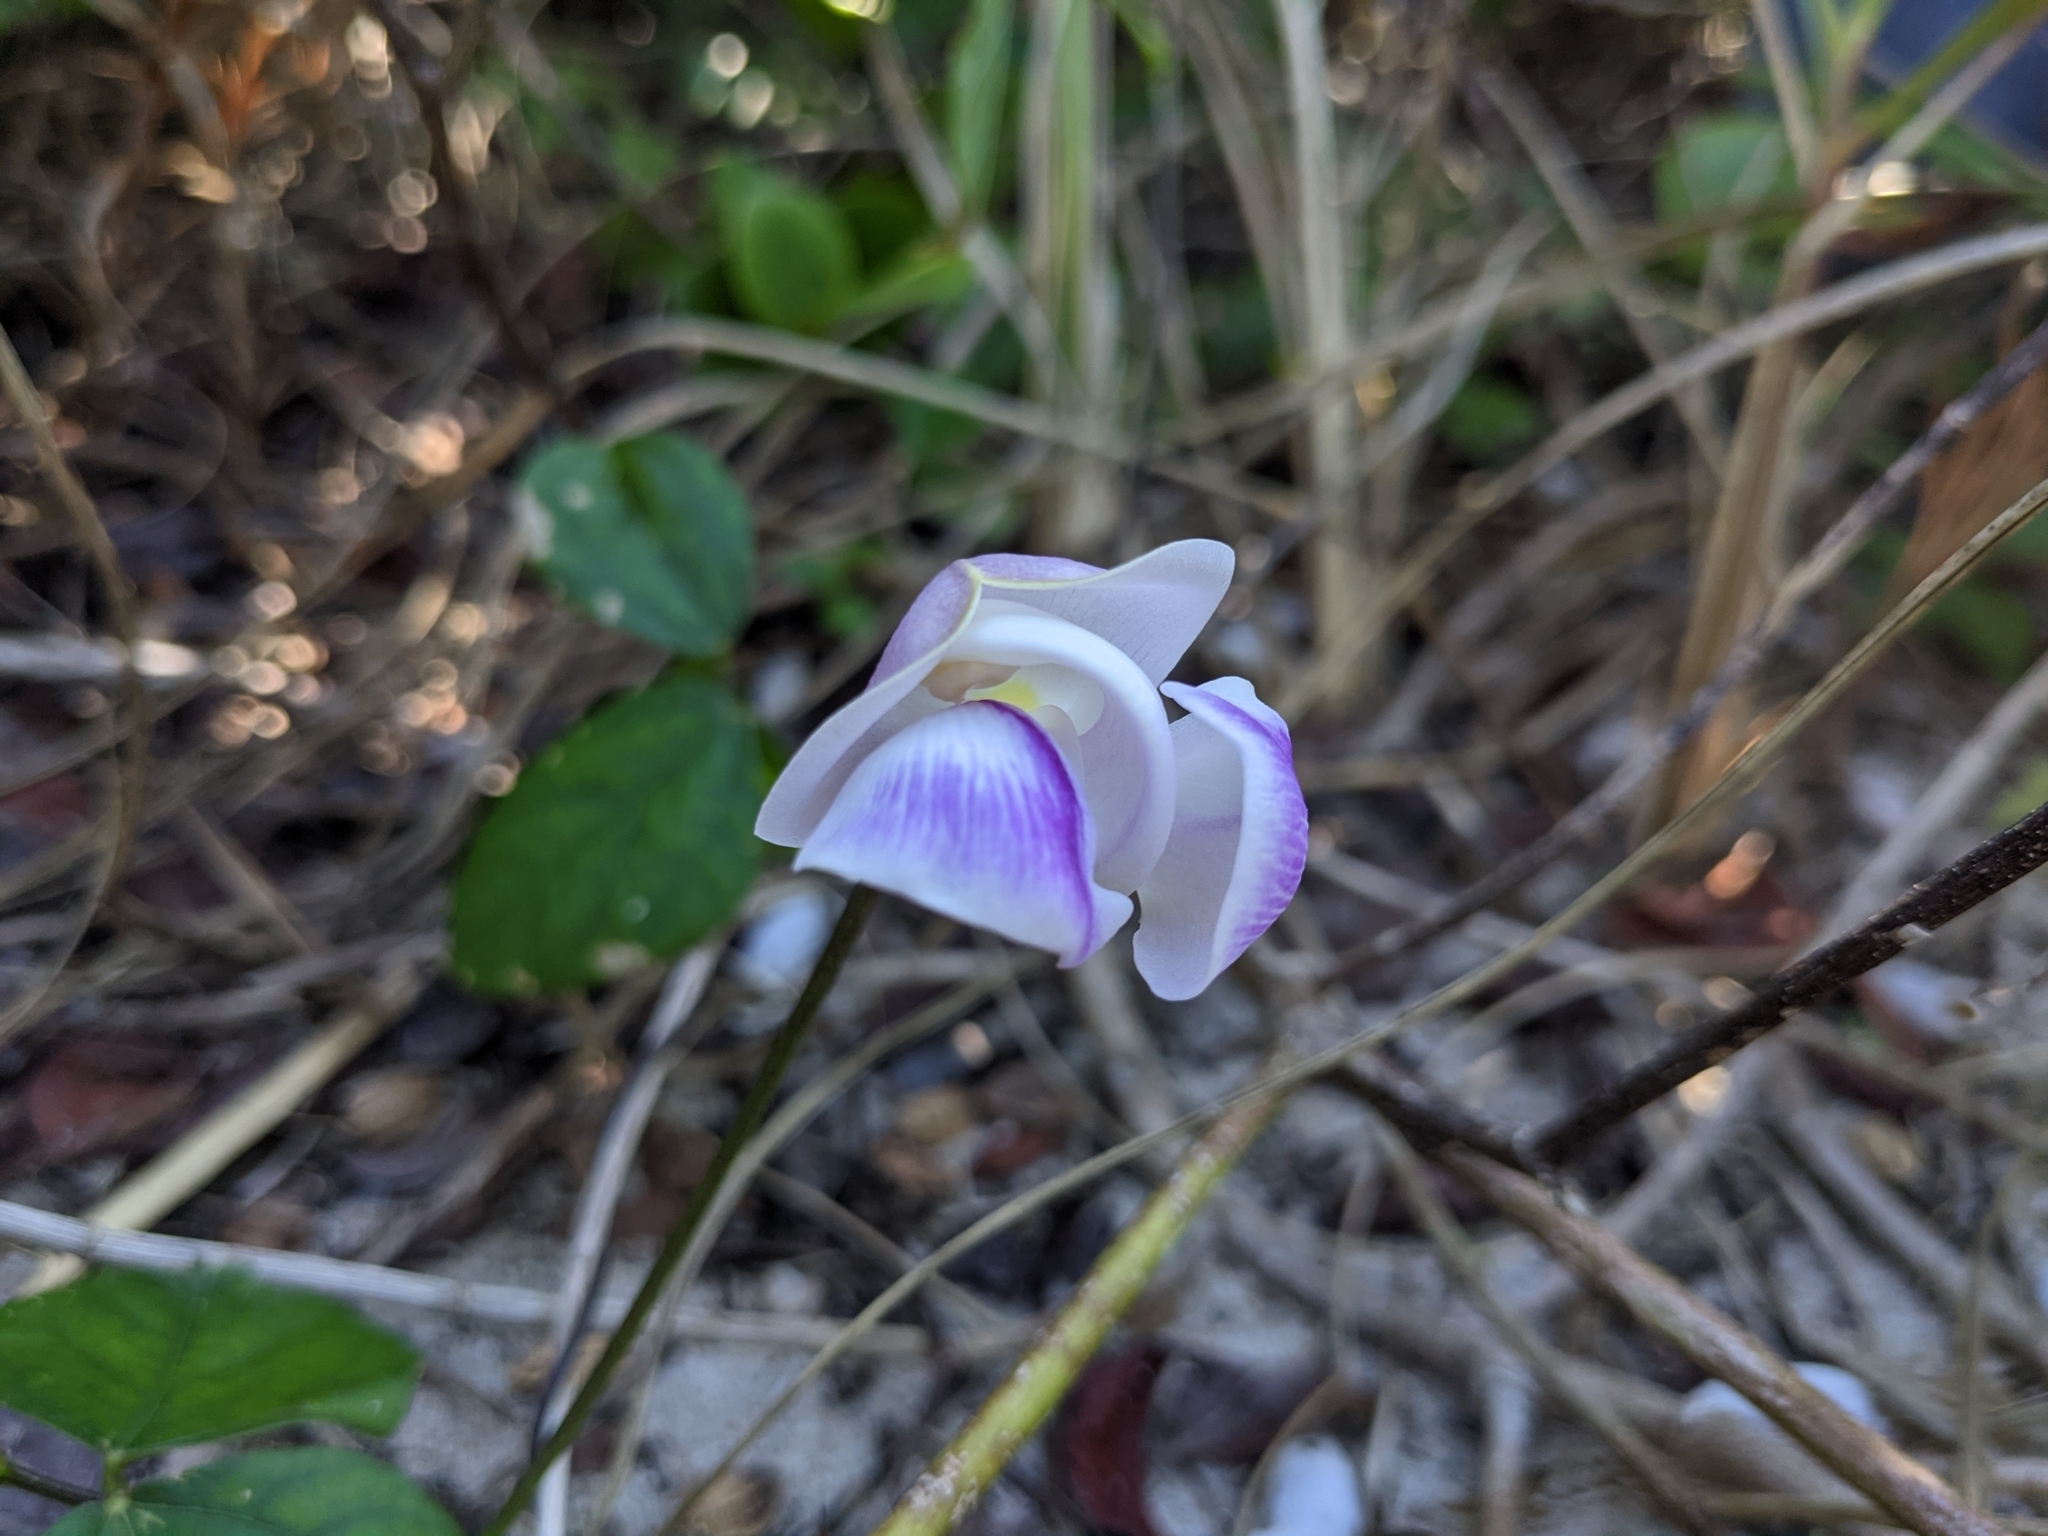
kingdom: Plantae
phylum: Tracheophyta
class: Magnoliopsida
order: Fabales
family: Fabaceae
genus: Leptospron
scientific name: Leptospron adenanthum
